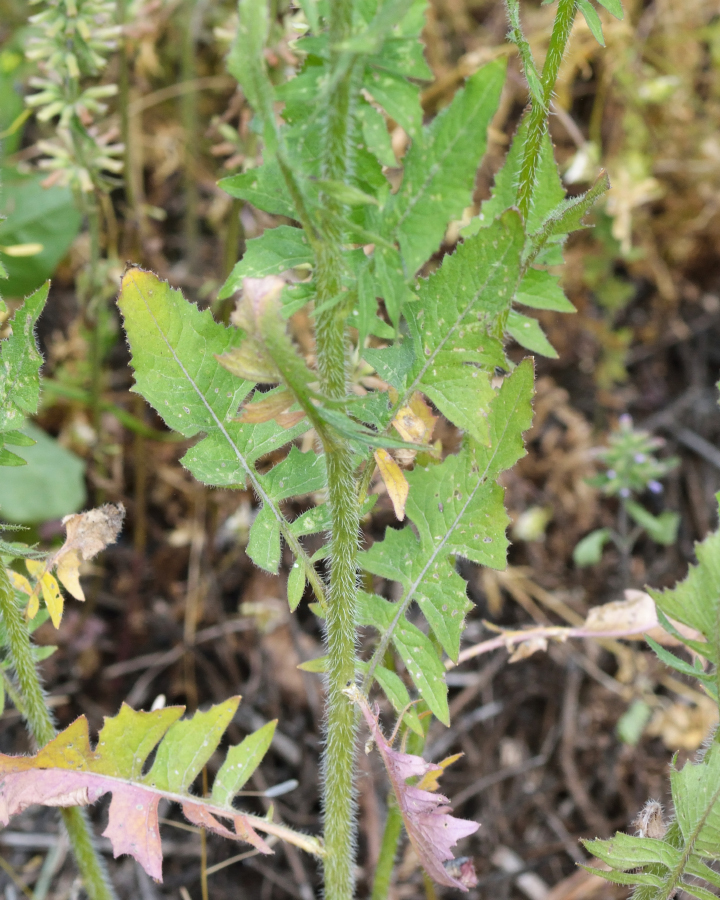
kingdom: Plantae
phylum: Tracheophyta
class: Magnoliopsida
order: Brassicales
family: Brassicaceae
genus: Sisymbrium
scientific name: Sisymbrium loeselii
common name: False london-rocket
